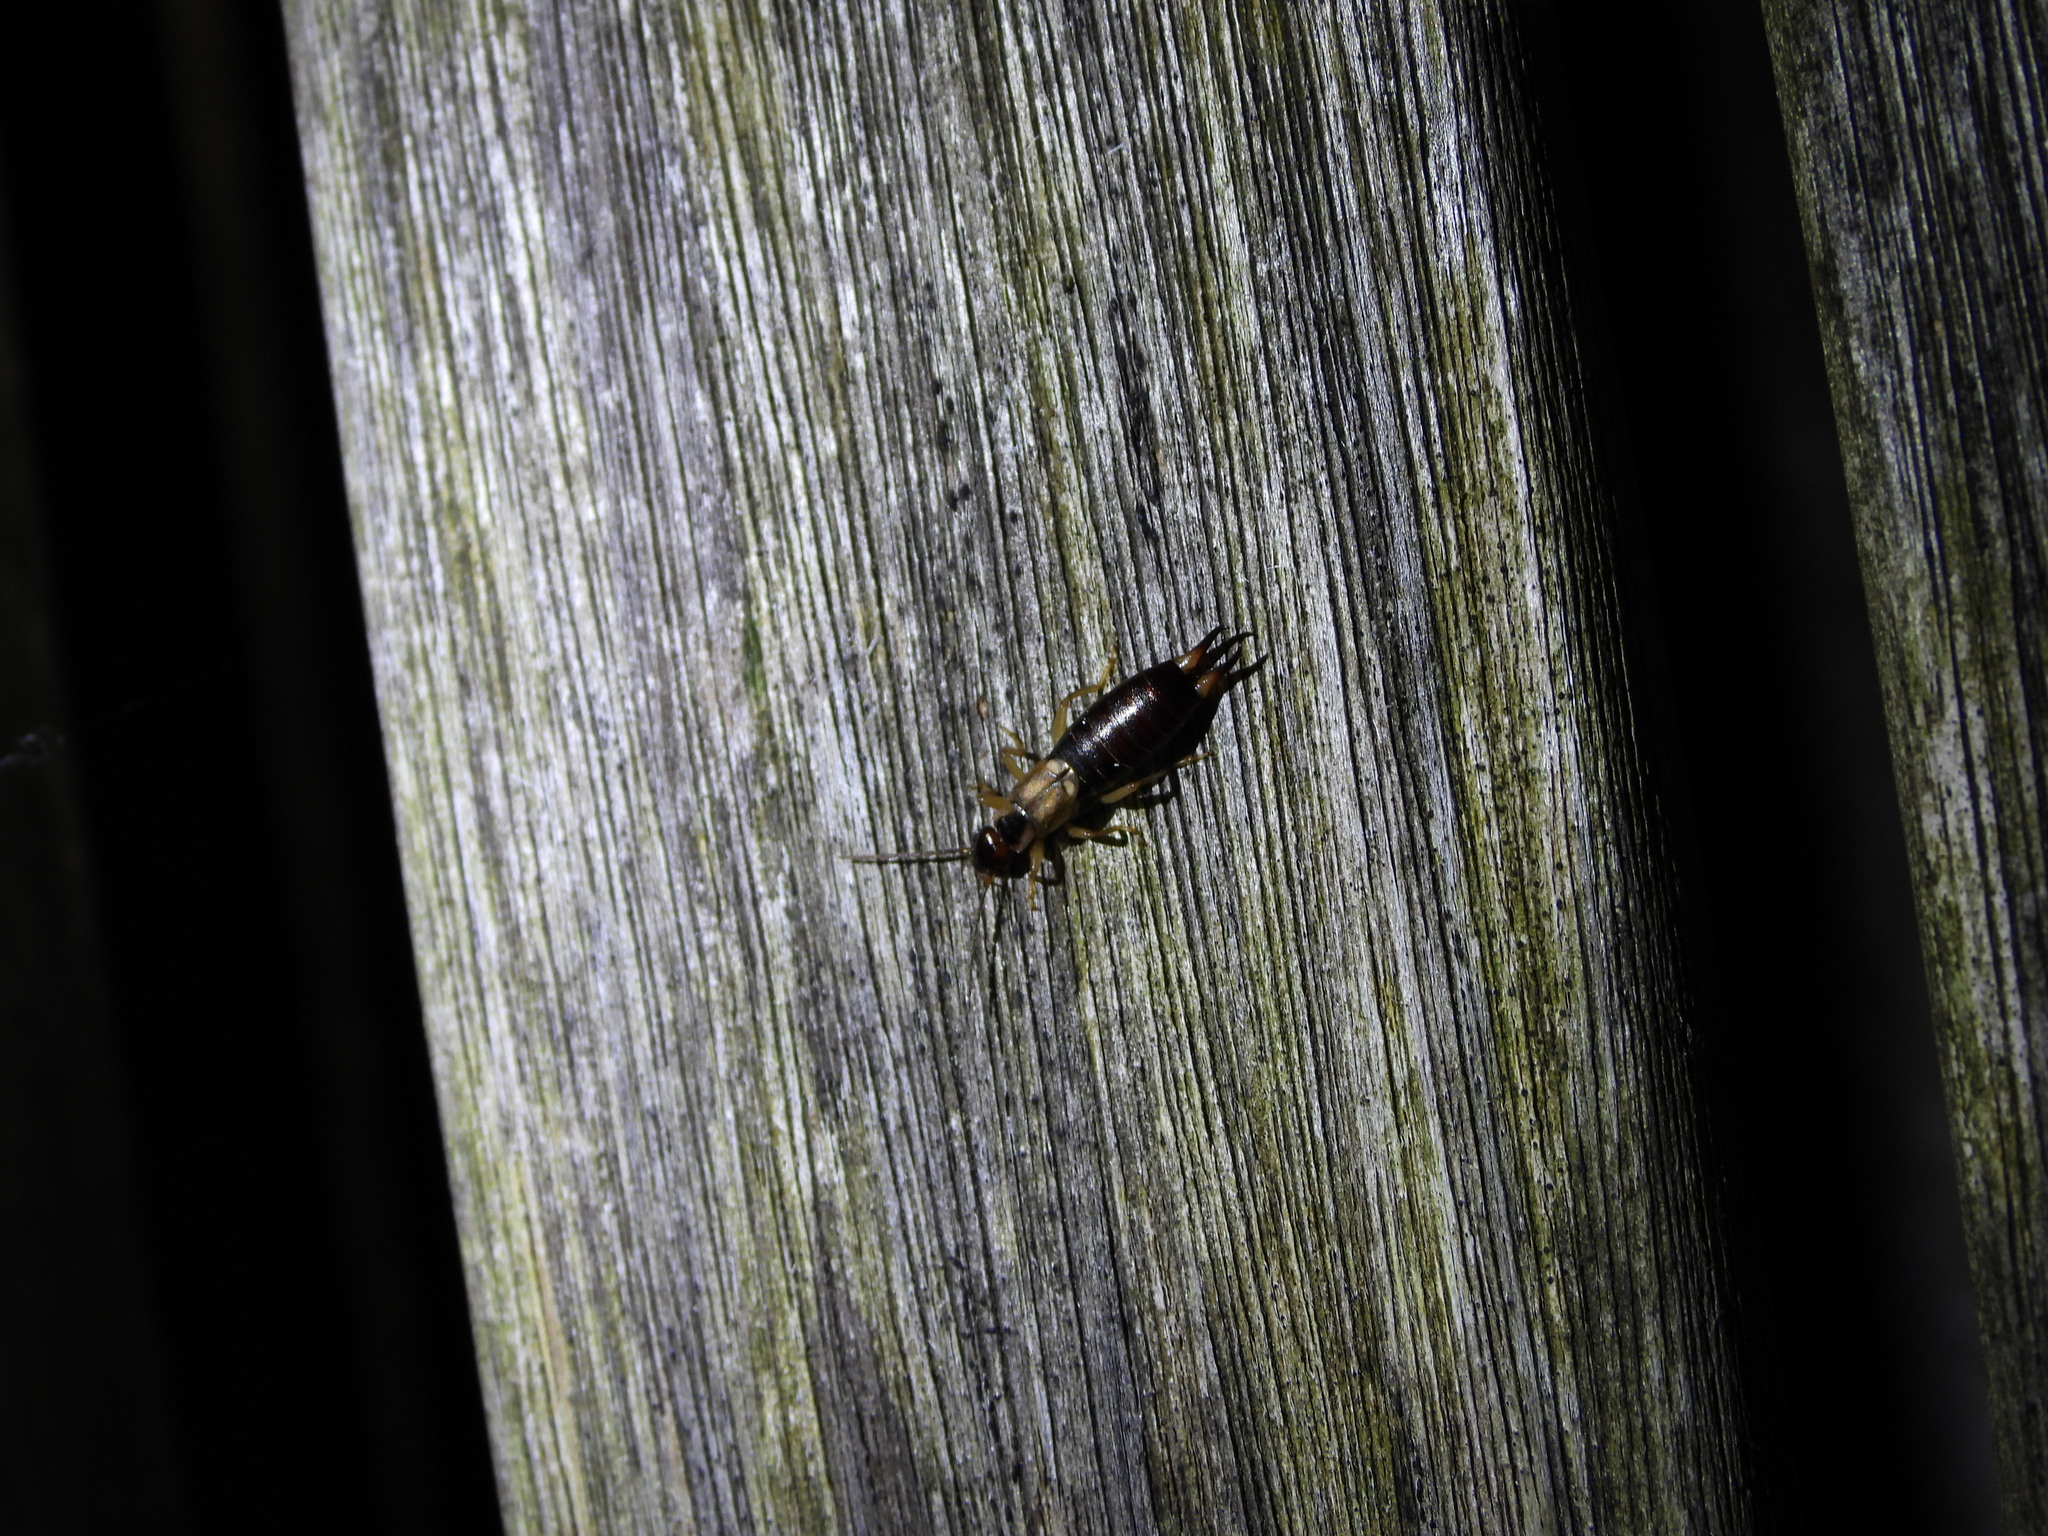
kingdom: Animalia
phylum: Arthropoda
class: Insecta
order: Dermaptera
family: Forficulidae
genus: Forficula
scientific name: Forficula
